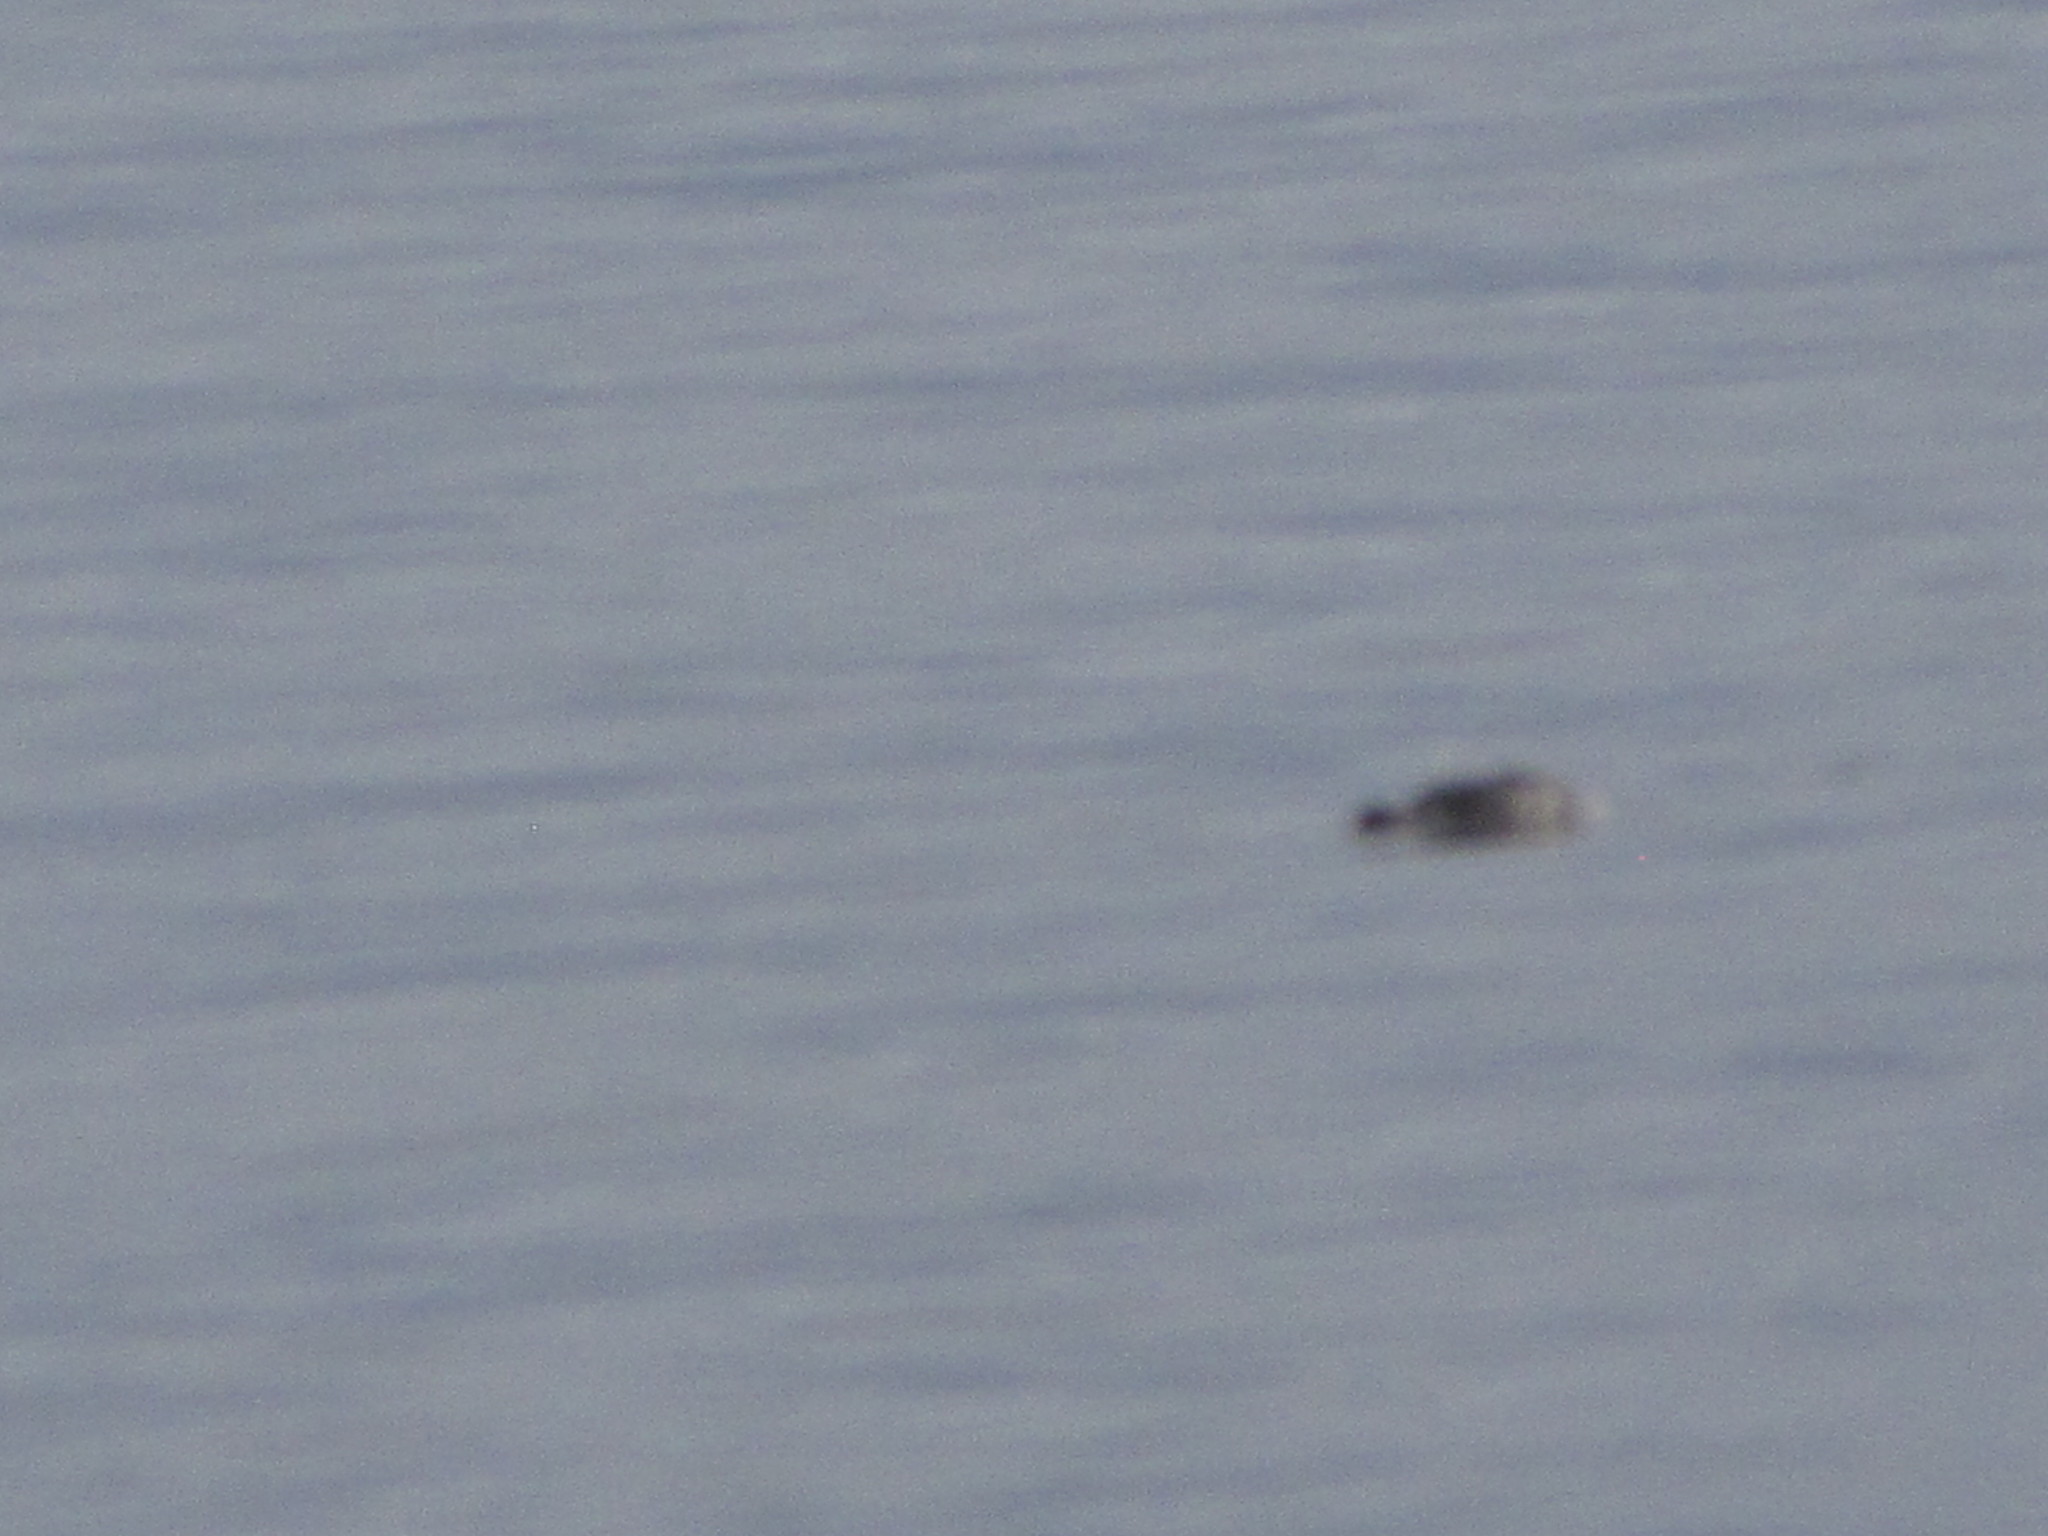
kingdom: Animalia
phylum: Chordata
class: Mammalia
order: Carnivora
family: Phocidae
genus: Phoca
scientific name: Phoca vitulina
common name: Harbor seal
